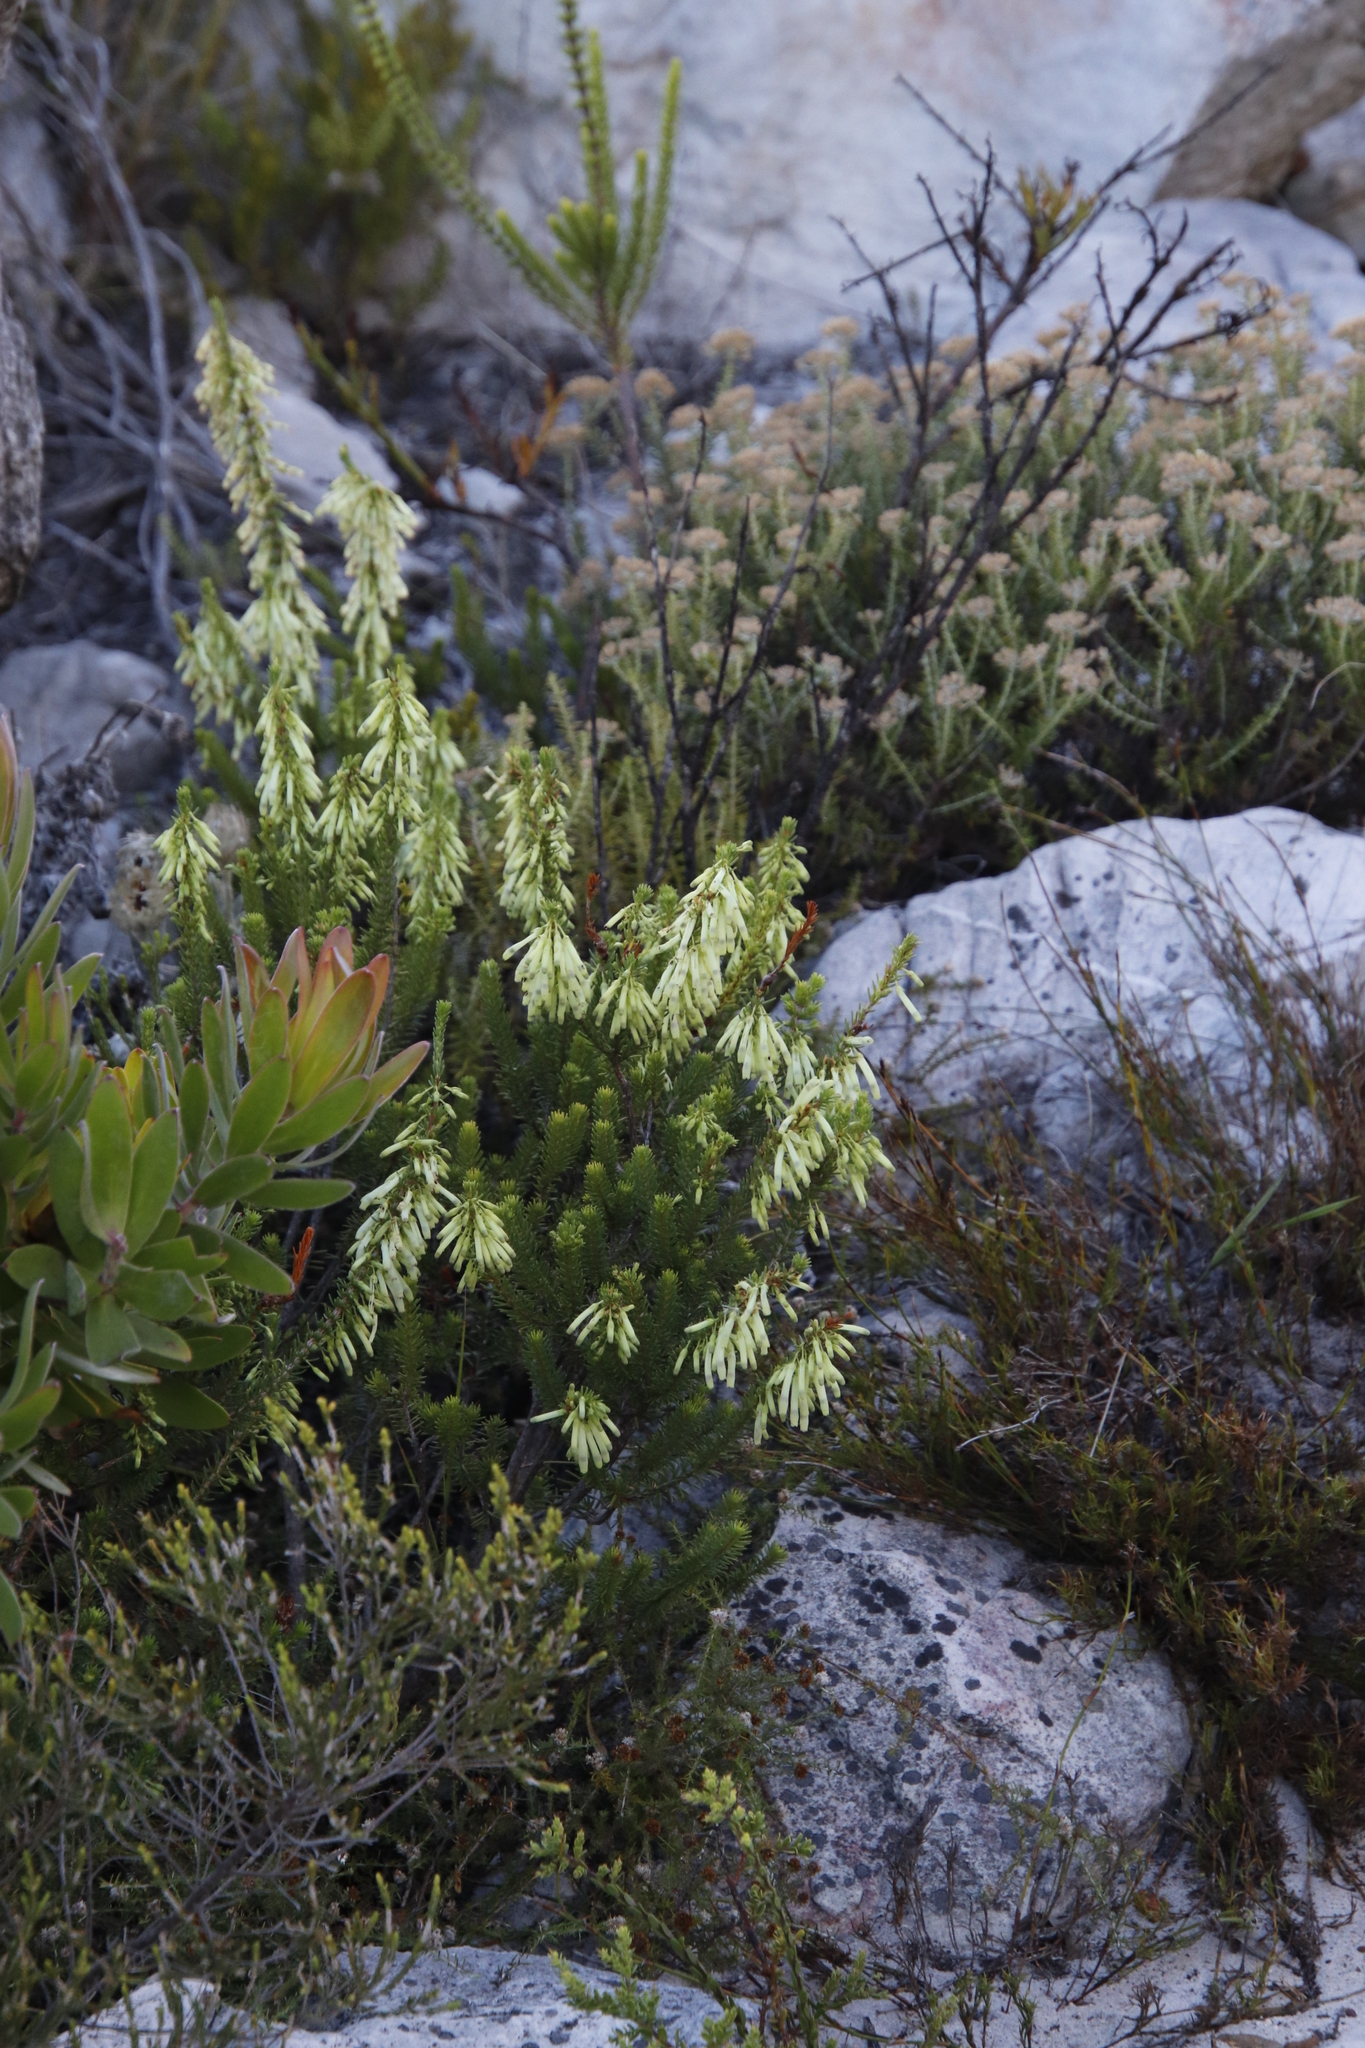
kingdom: Plantae
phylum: Tracheophyta
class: Magnoliopsida
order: Ericales
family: Ericaceae
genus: Erica
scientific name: Erica mammosa
